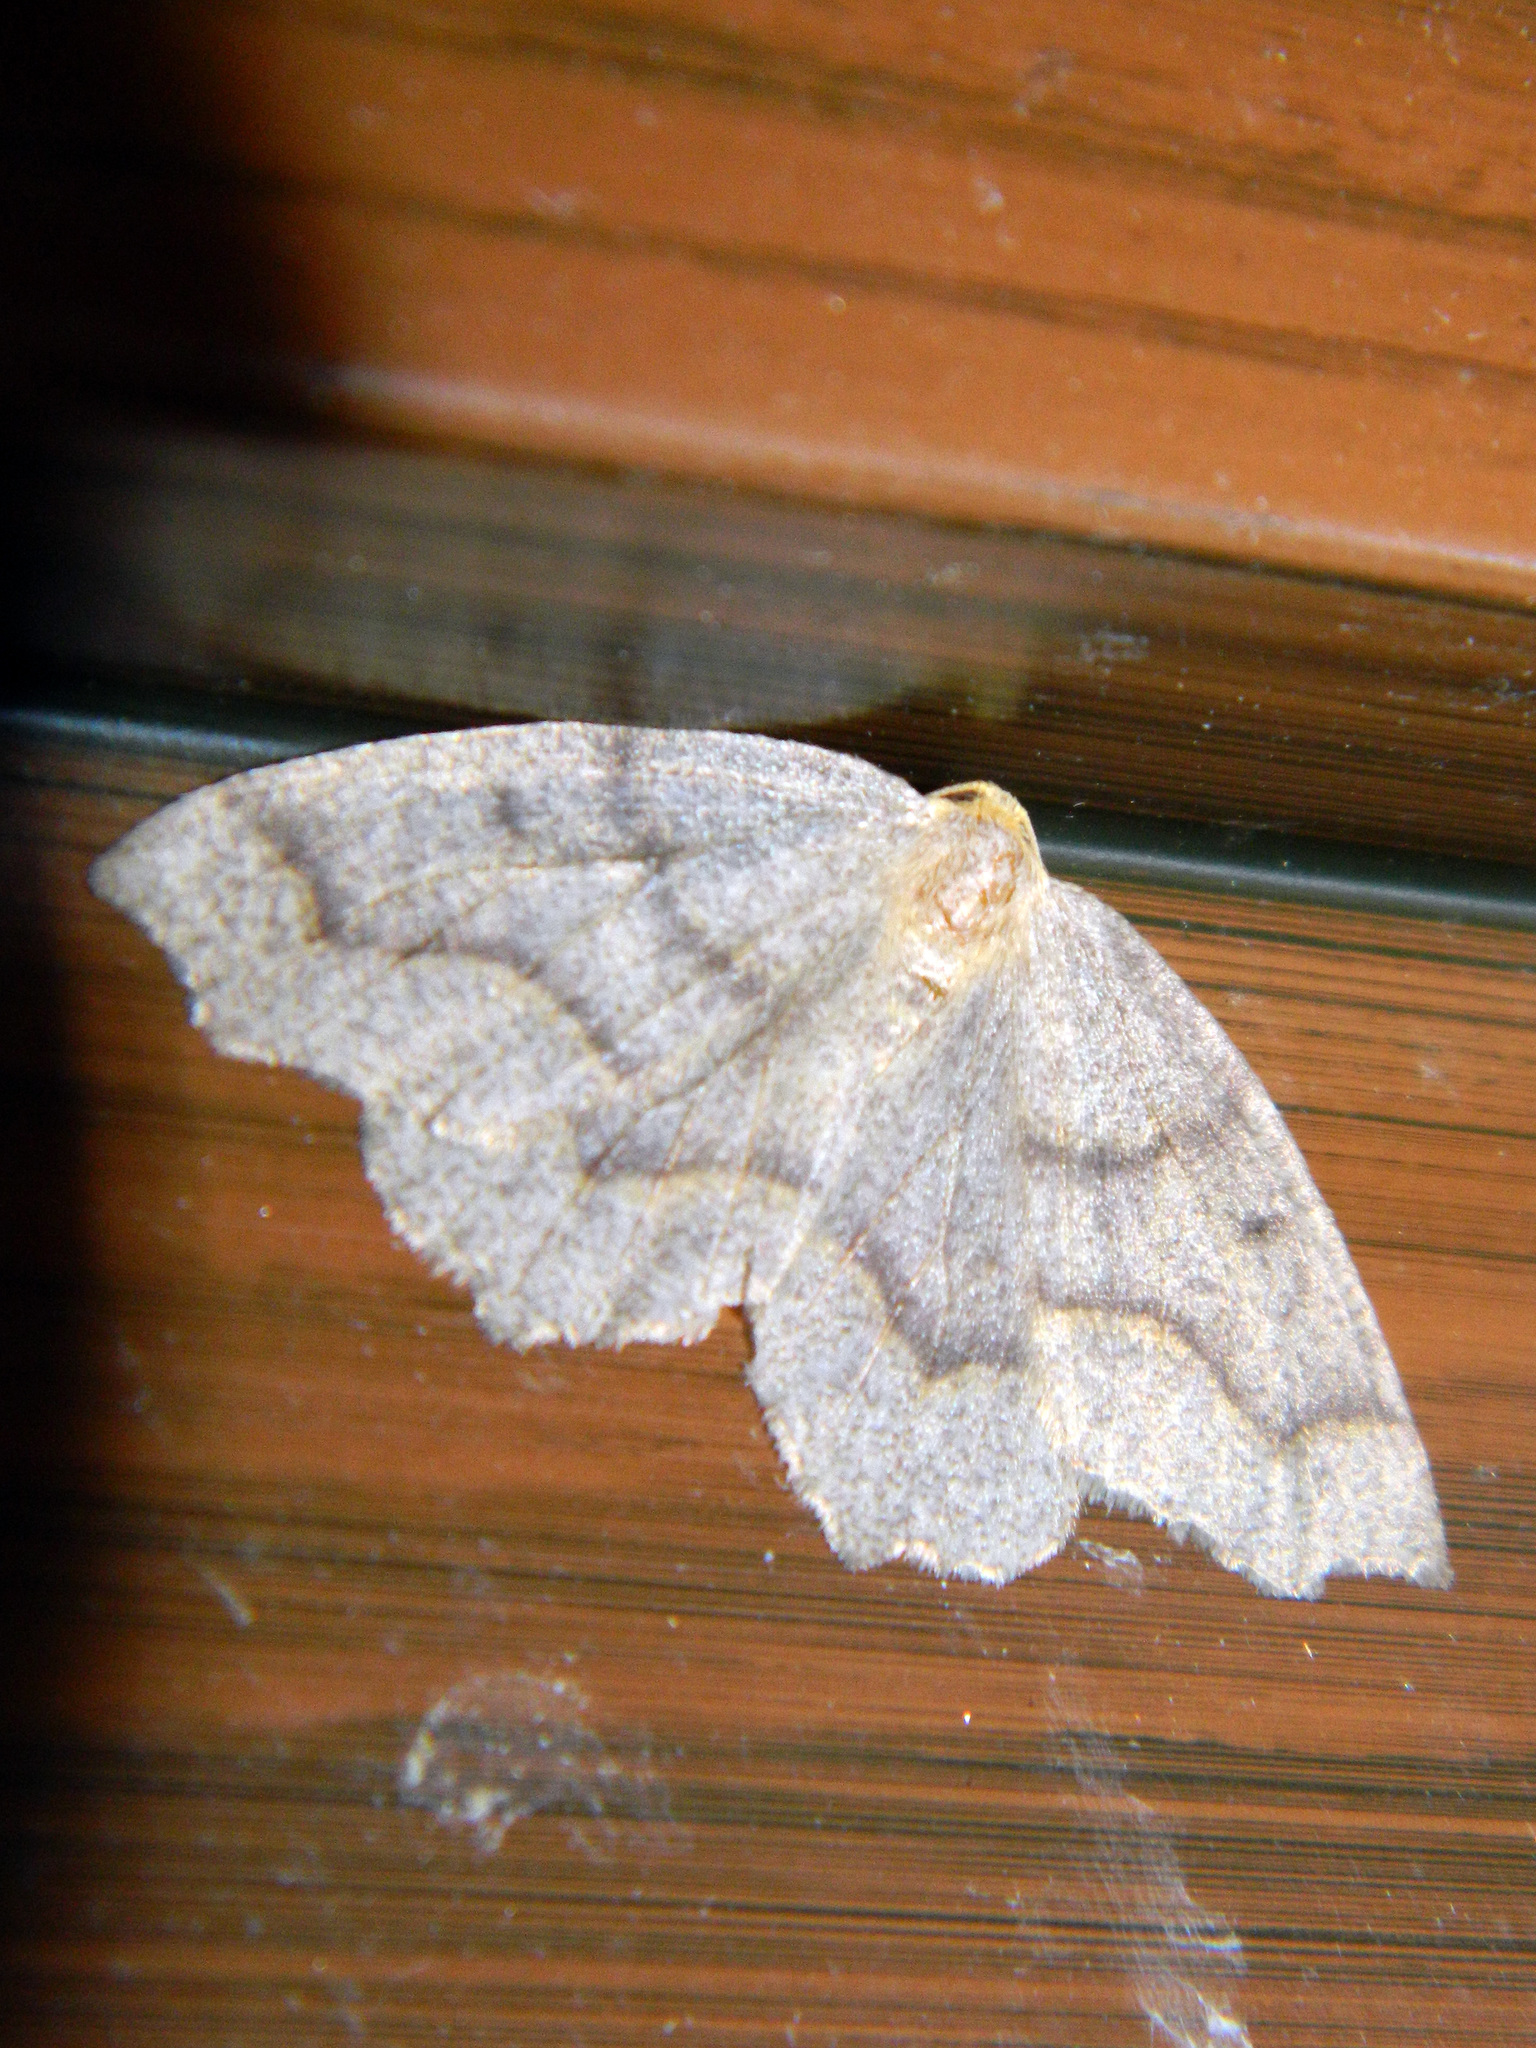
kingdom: Animalia
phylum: Arthropoda
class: Insecta
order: Lepidoptera
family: Geometridae
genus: Lambdina
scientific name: Lambdina fiscellaria
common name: Hemlock looper
